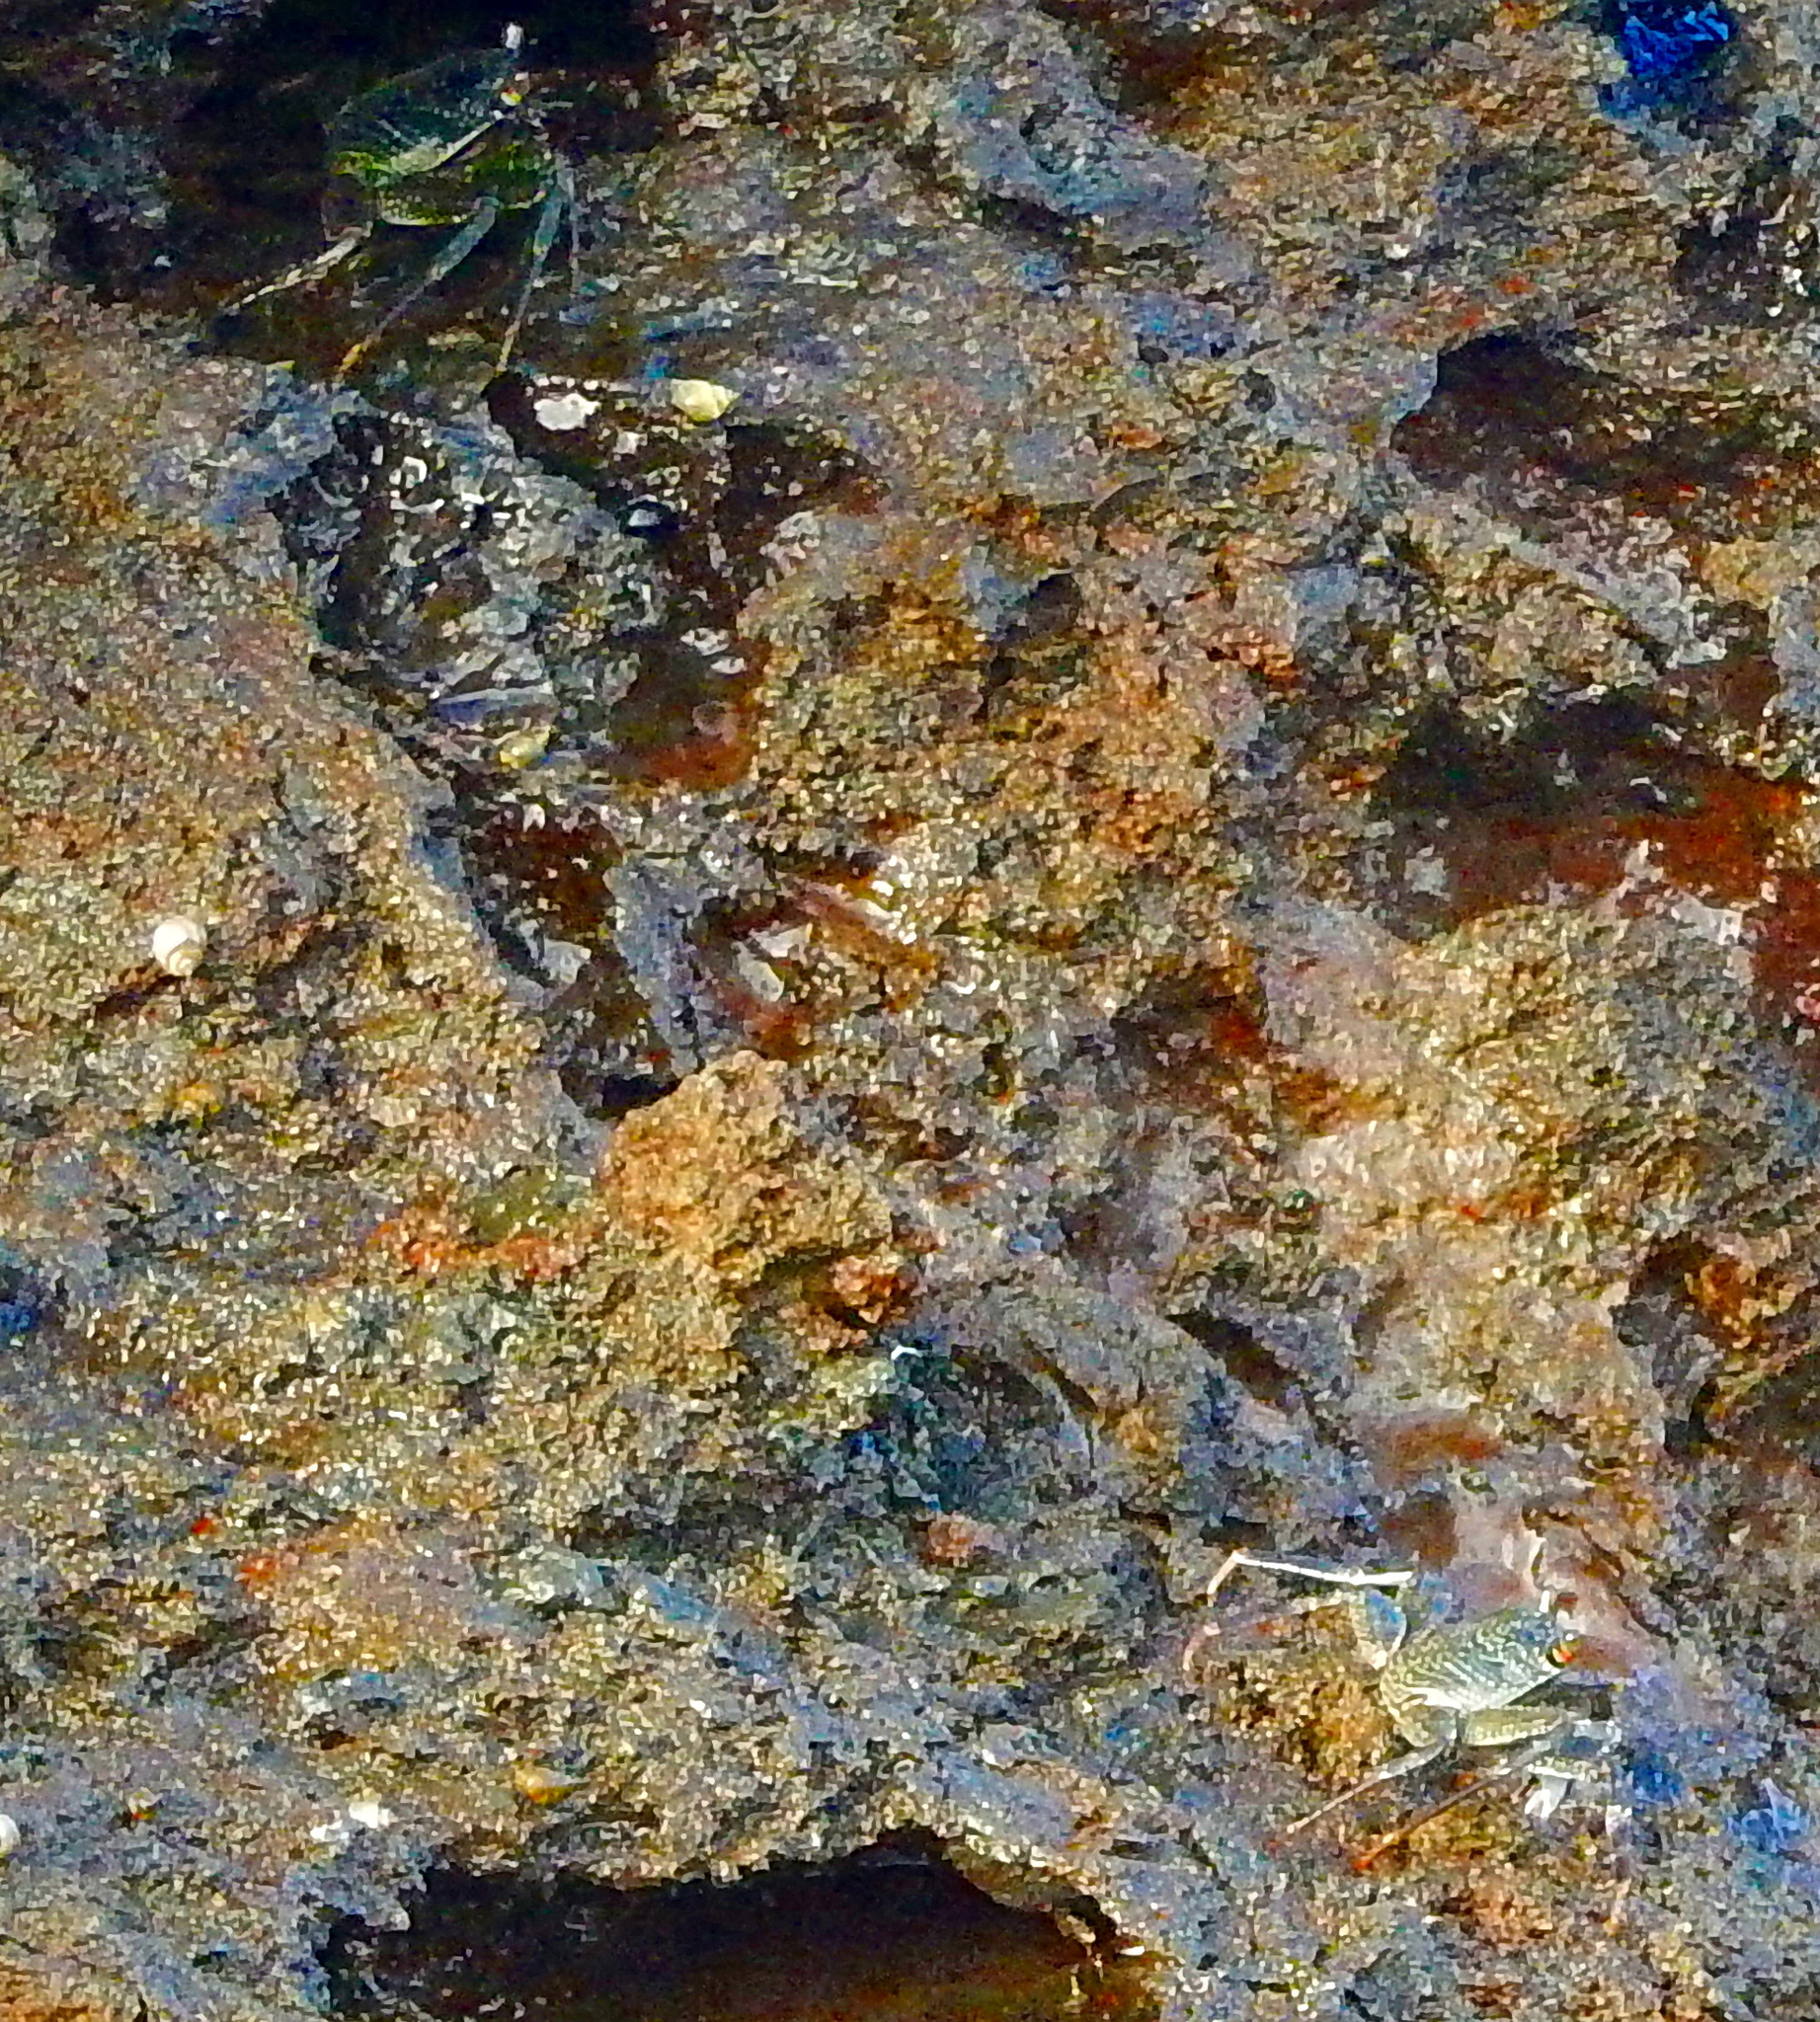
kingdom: Animalia
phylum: Arthropoda
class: Malacostraca
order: Decapoda
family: Grapsidae
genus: Grapsus
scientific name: Grapsus tenuicrustatus
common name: Natal lightfoot crab
